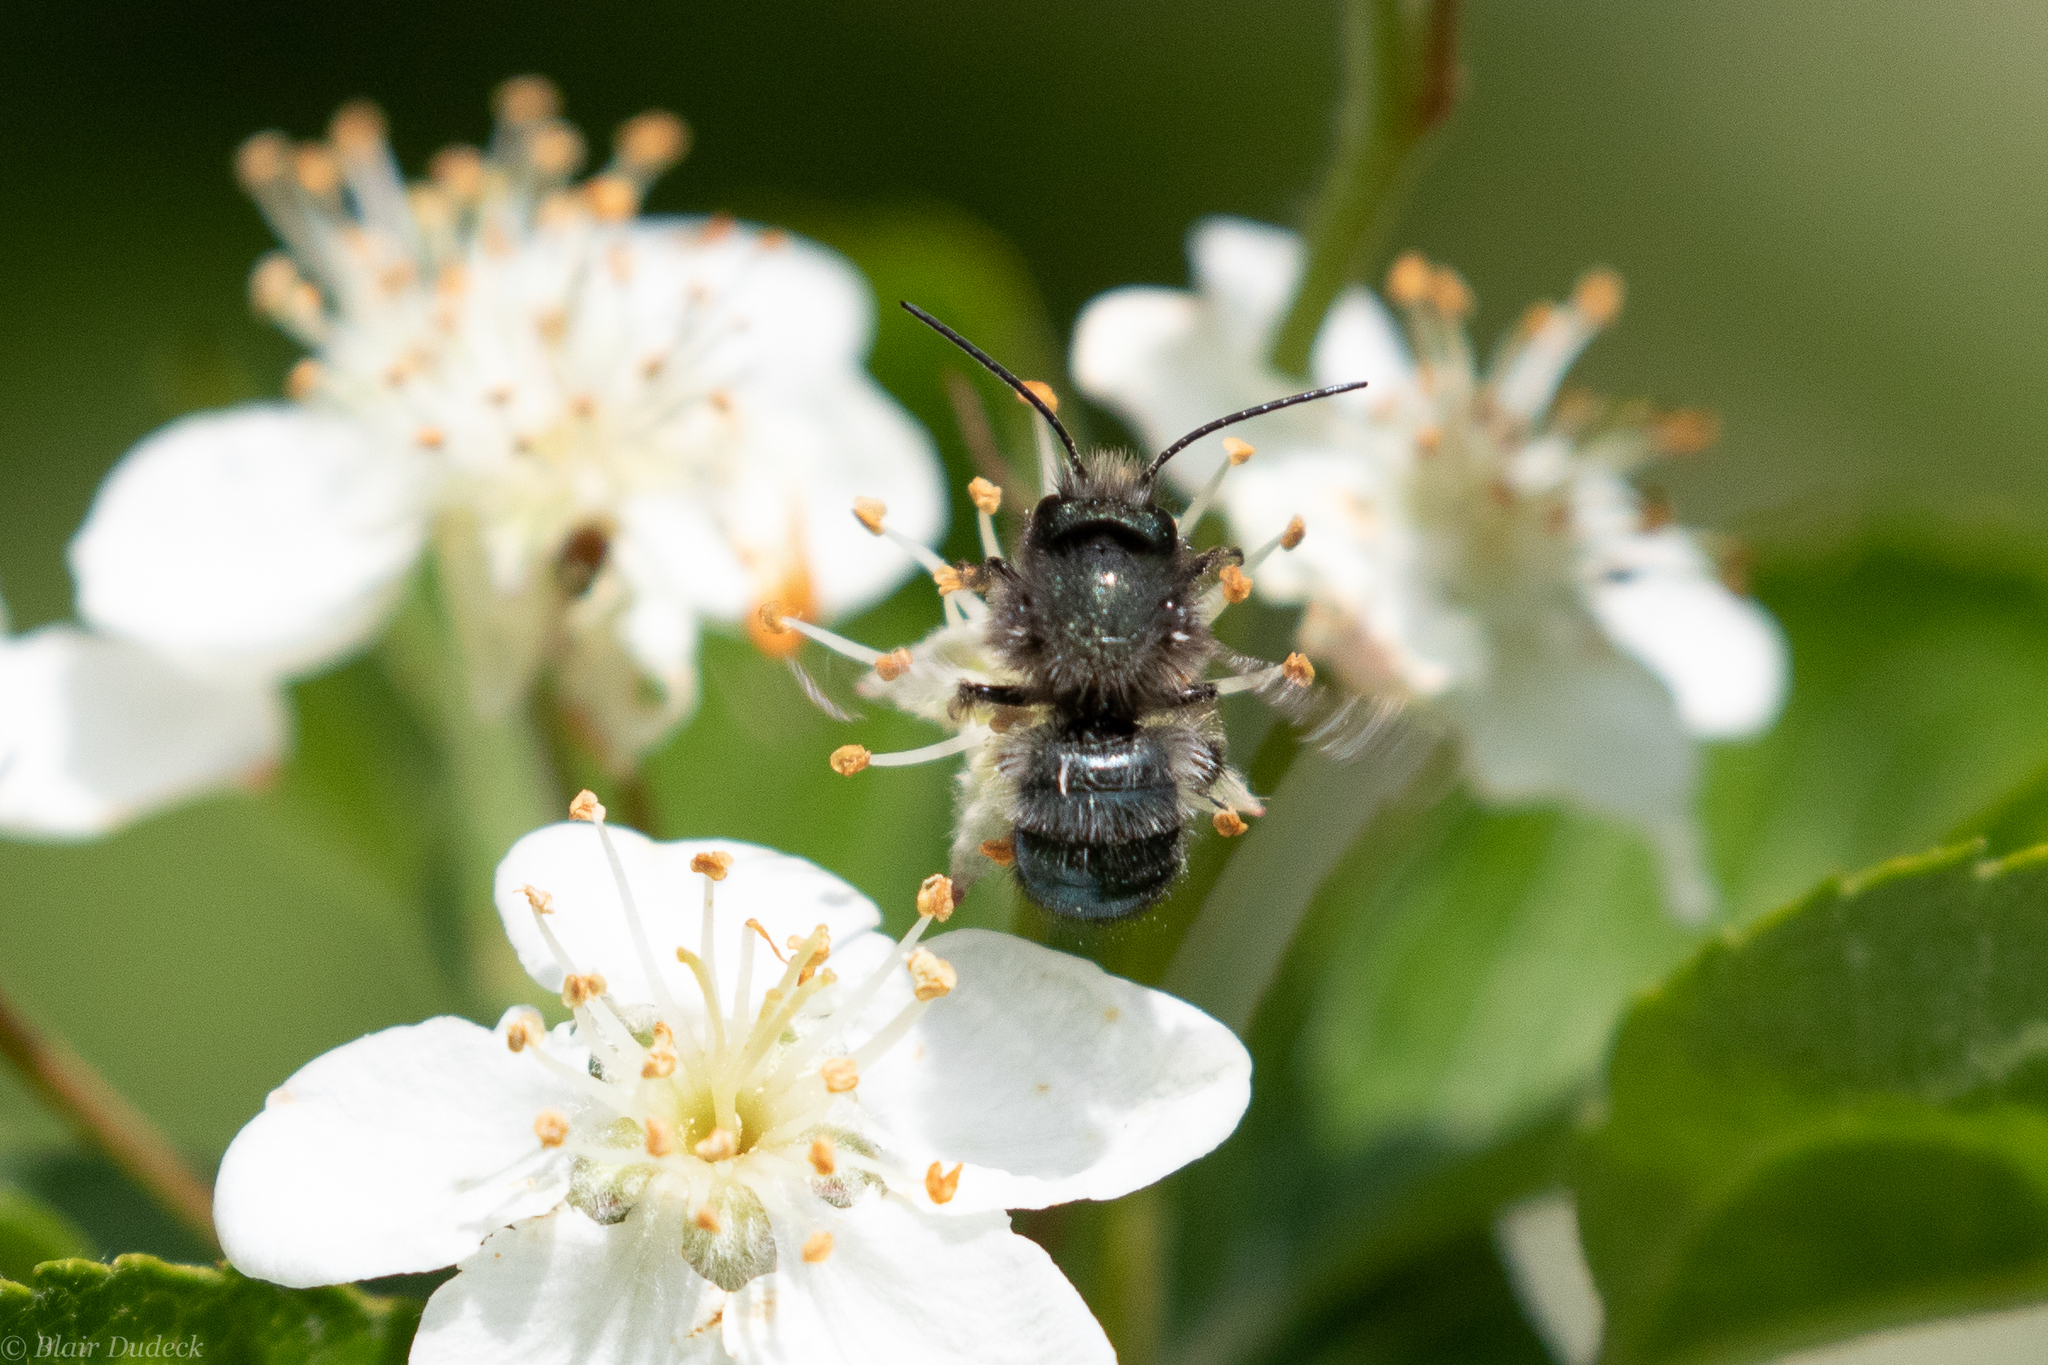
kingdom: Animalia
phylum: Arthropoda
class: Insecta
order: Hymenoptera
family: Megachilidae
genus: Osmia
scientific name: Osmia lignaria
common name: Blue orchard bee
